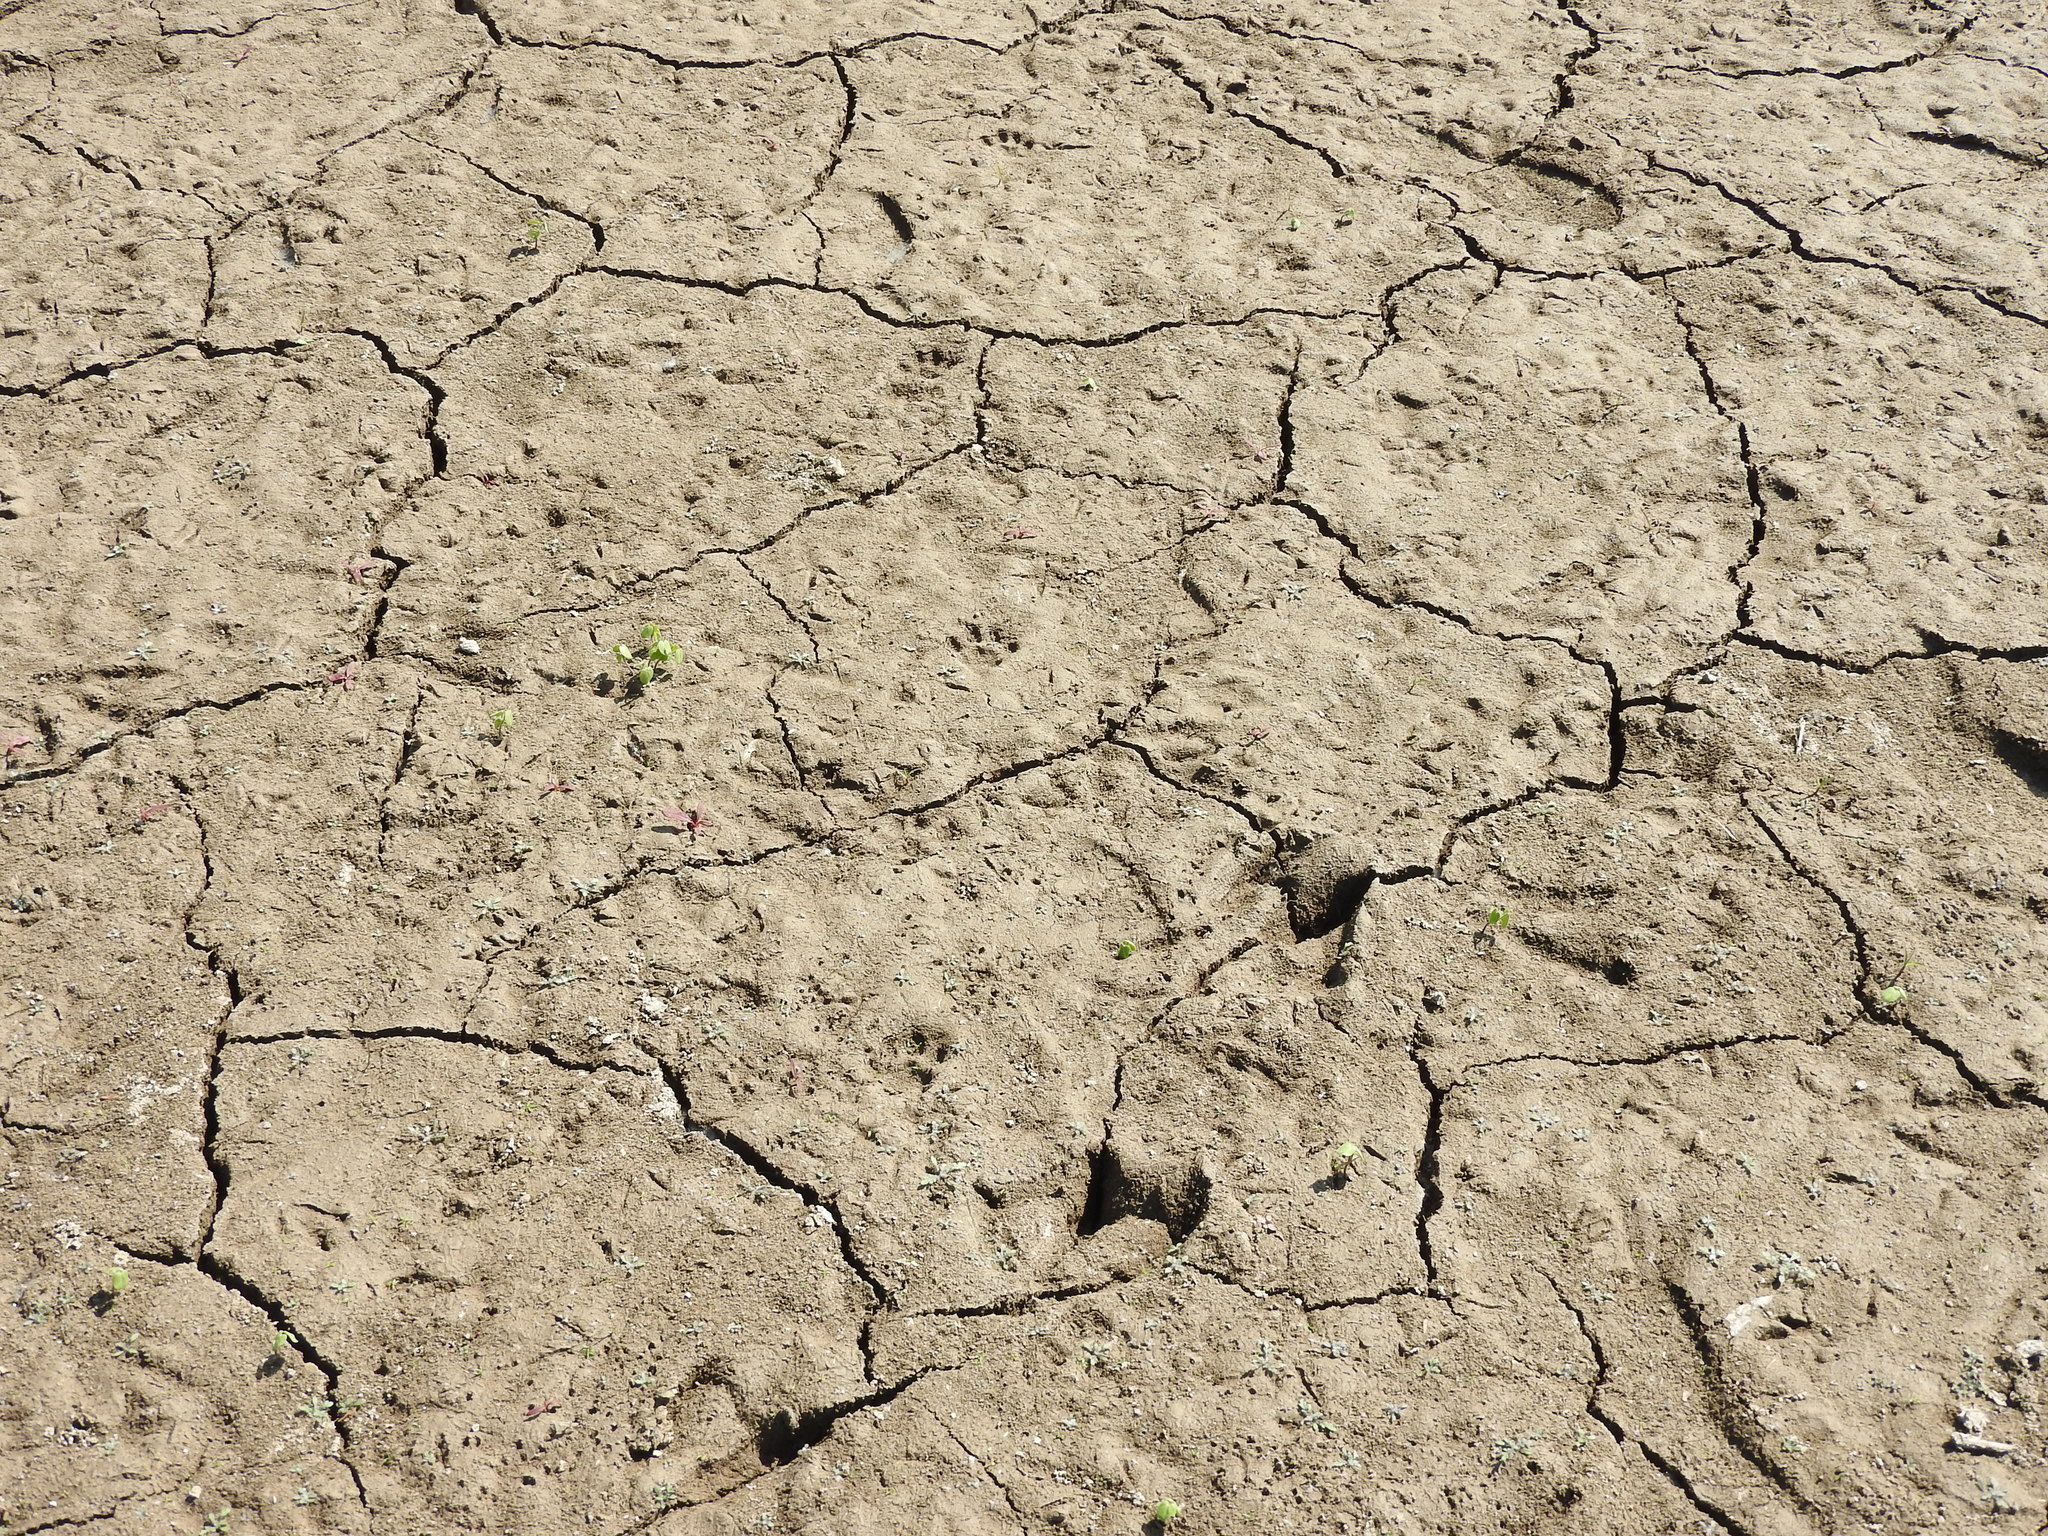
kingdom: Animalia
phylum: Chordata
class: Mammalia
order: Carnivora
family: Procyonidae
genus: Procyon
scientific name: Procyon lotor
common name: Raccoon
